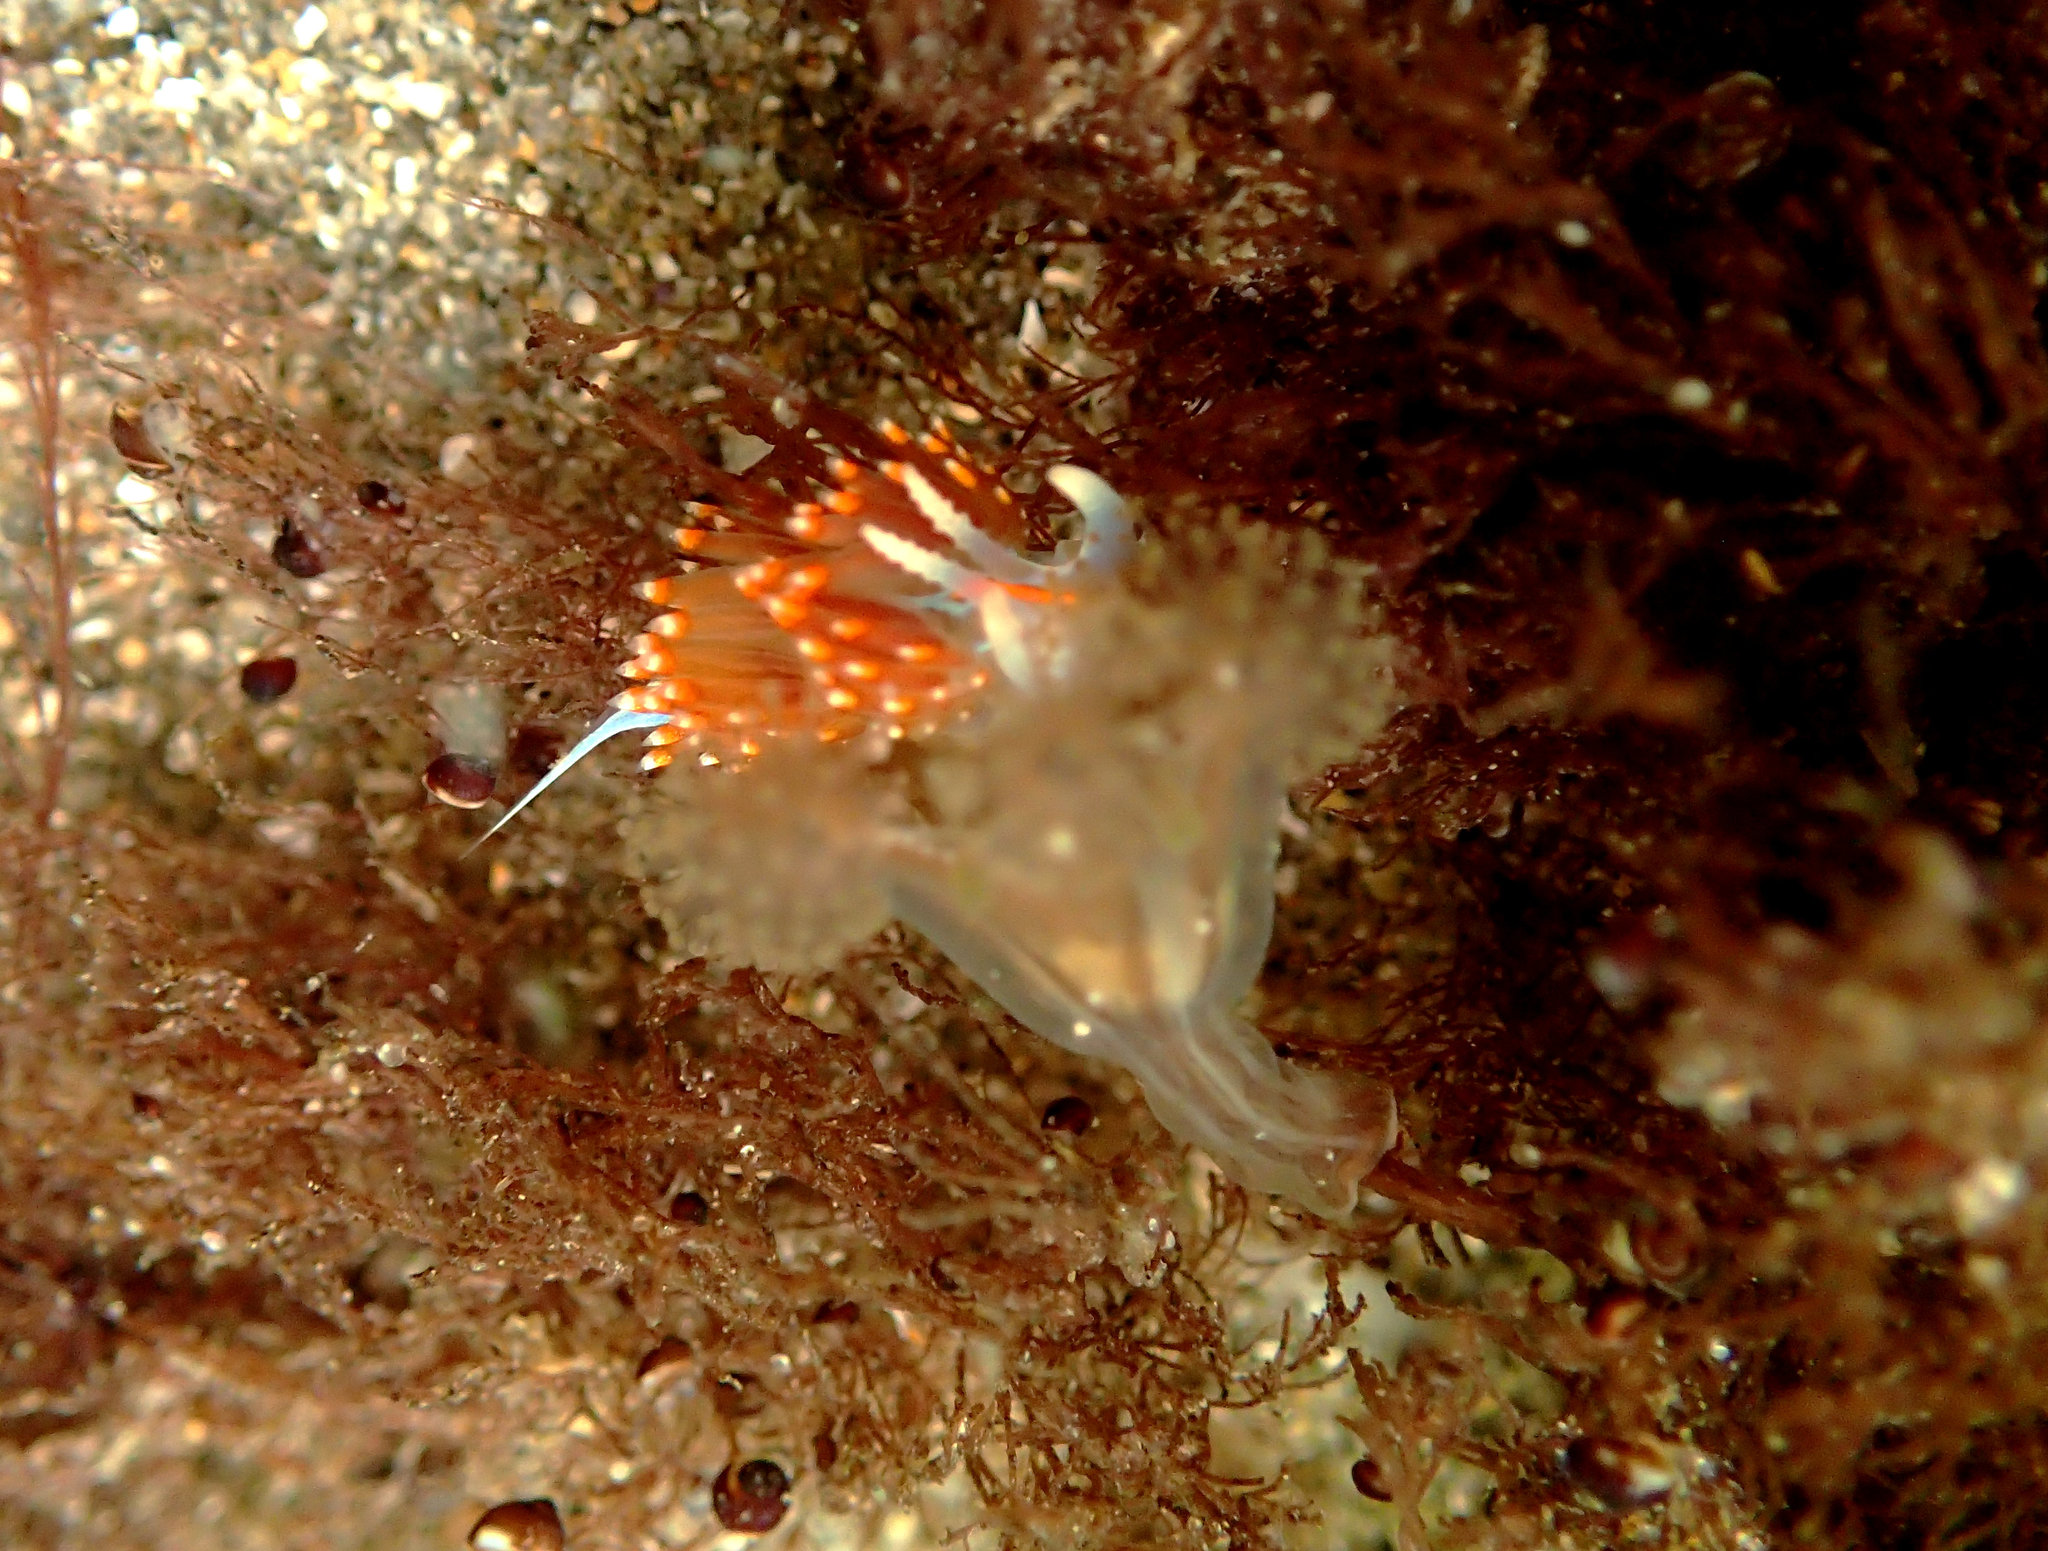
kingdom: Animalia
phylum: Mollusca
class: Gastropoda
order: Nudibranchia
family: Myrrhinidae
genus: Hermissenda
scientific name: Hermissenda opalescens
